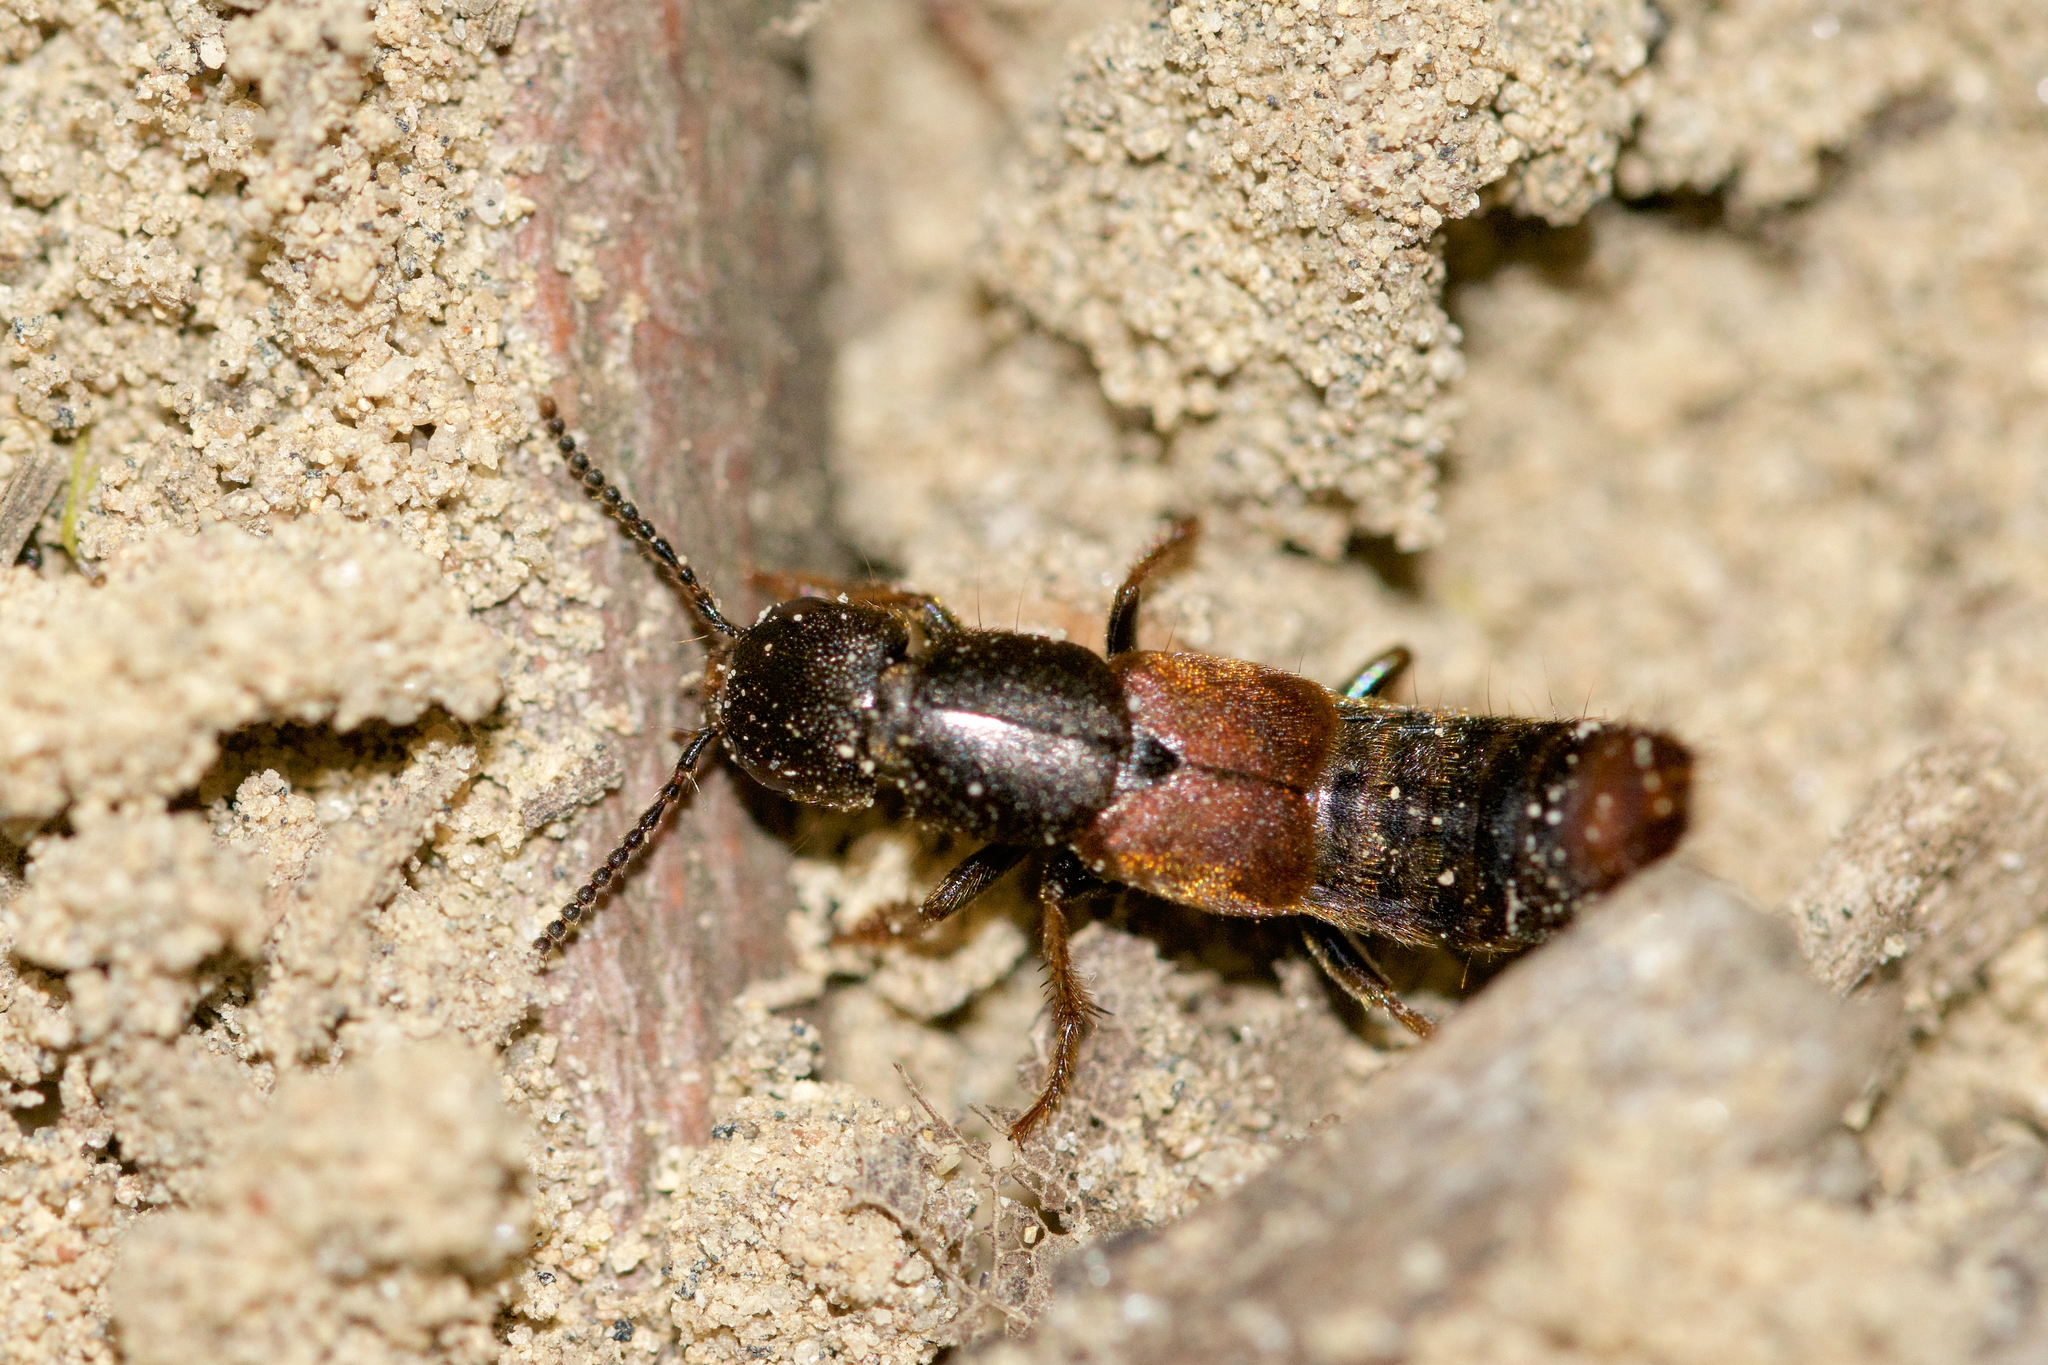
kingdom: Animalia
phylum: Arthropoda
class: Insecta
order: Coleoptera
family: Staphylinidae
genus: Platydracus
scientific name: Platydracus cinnamopterus
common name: Cinnamon rove beetle
